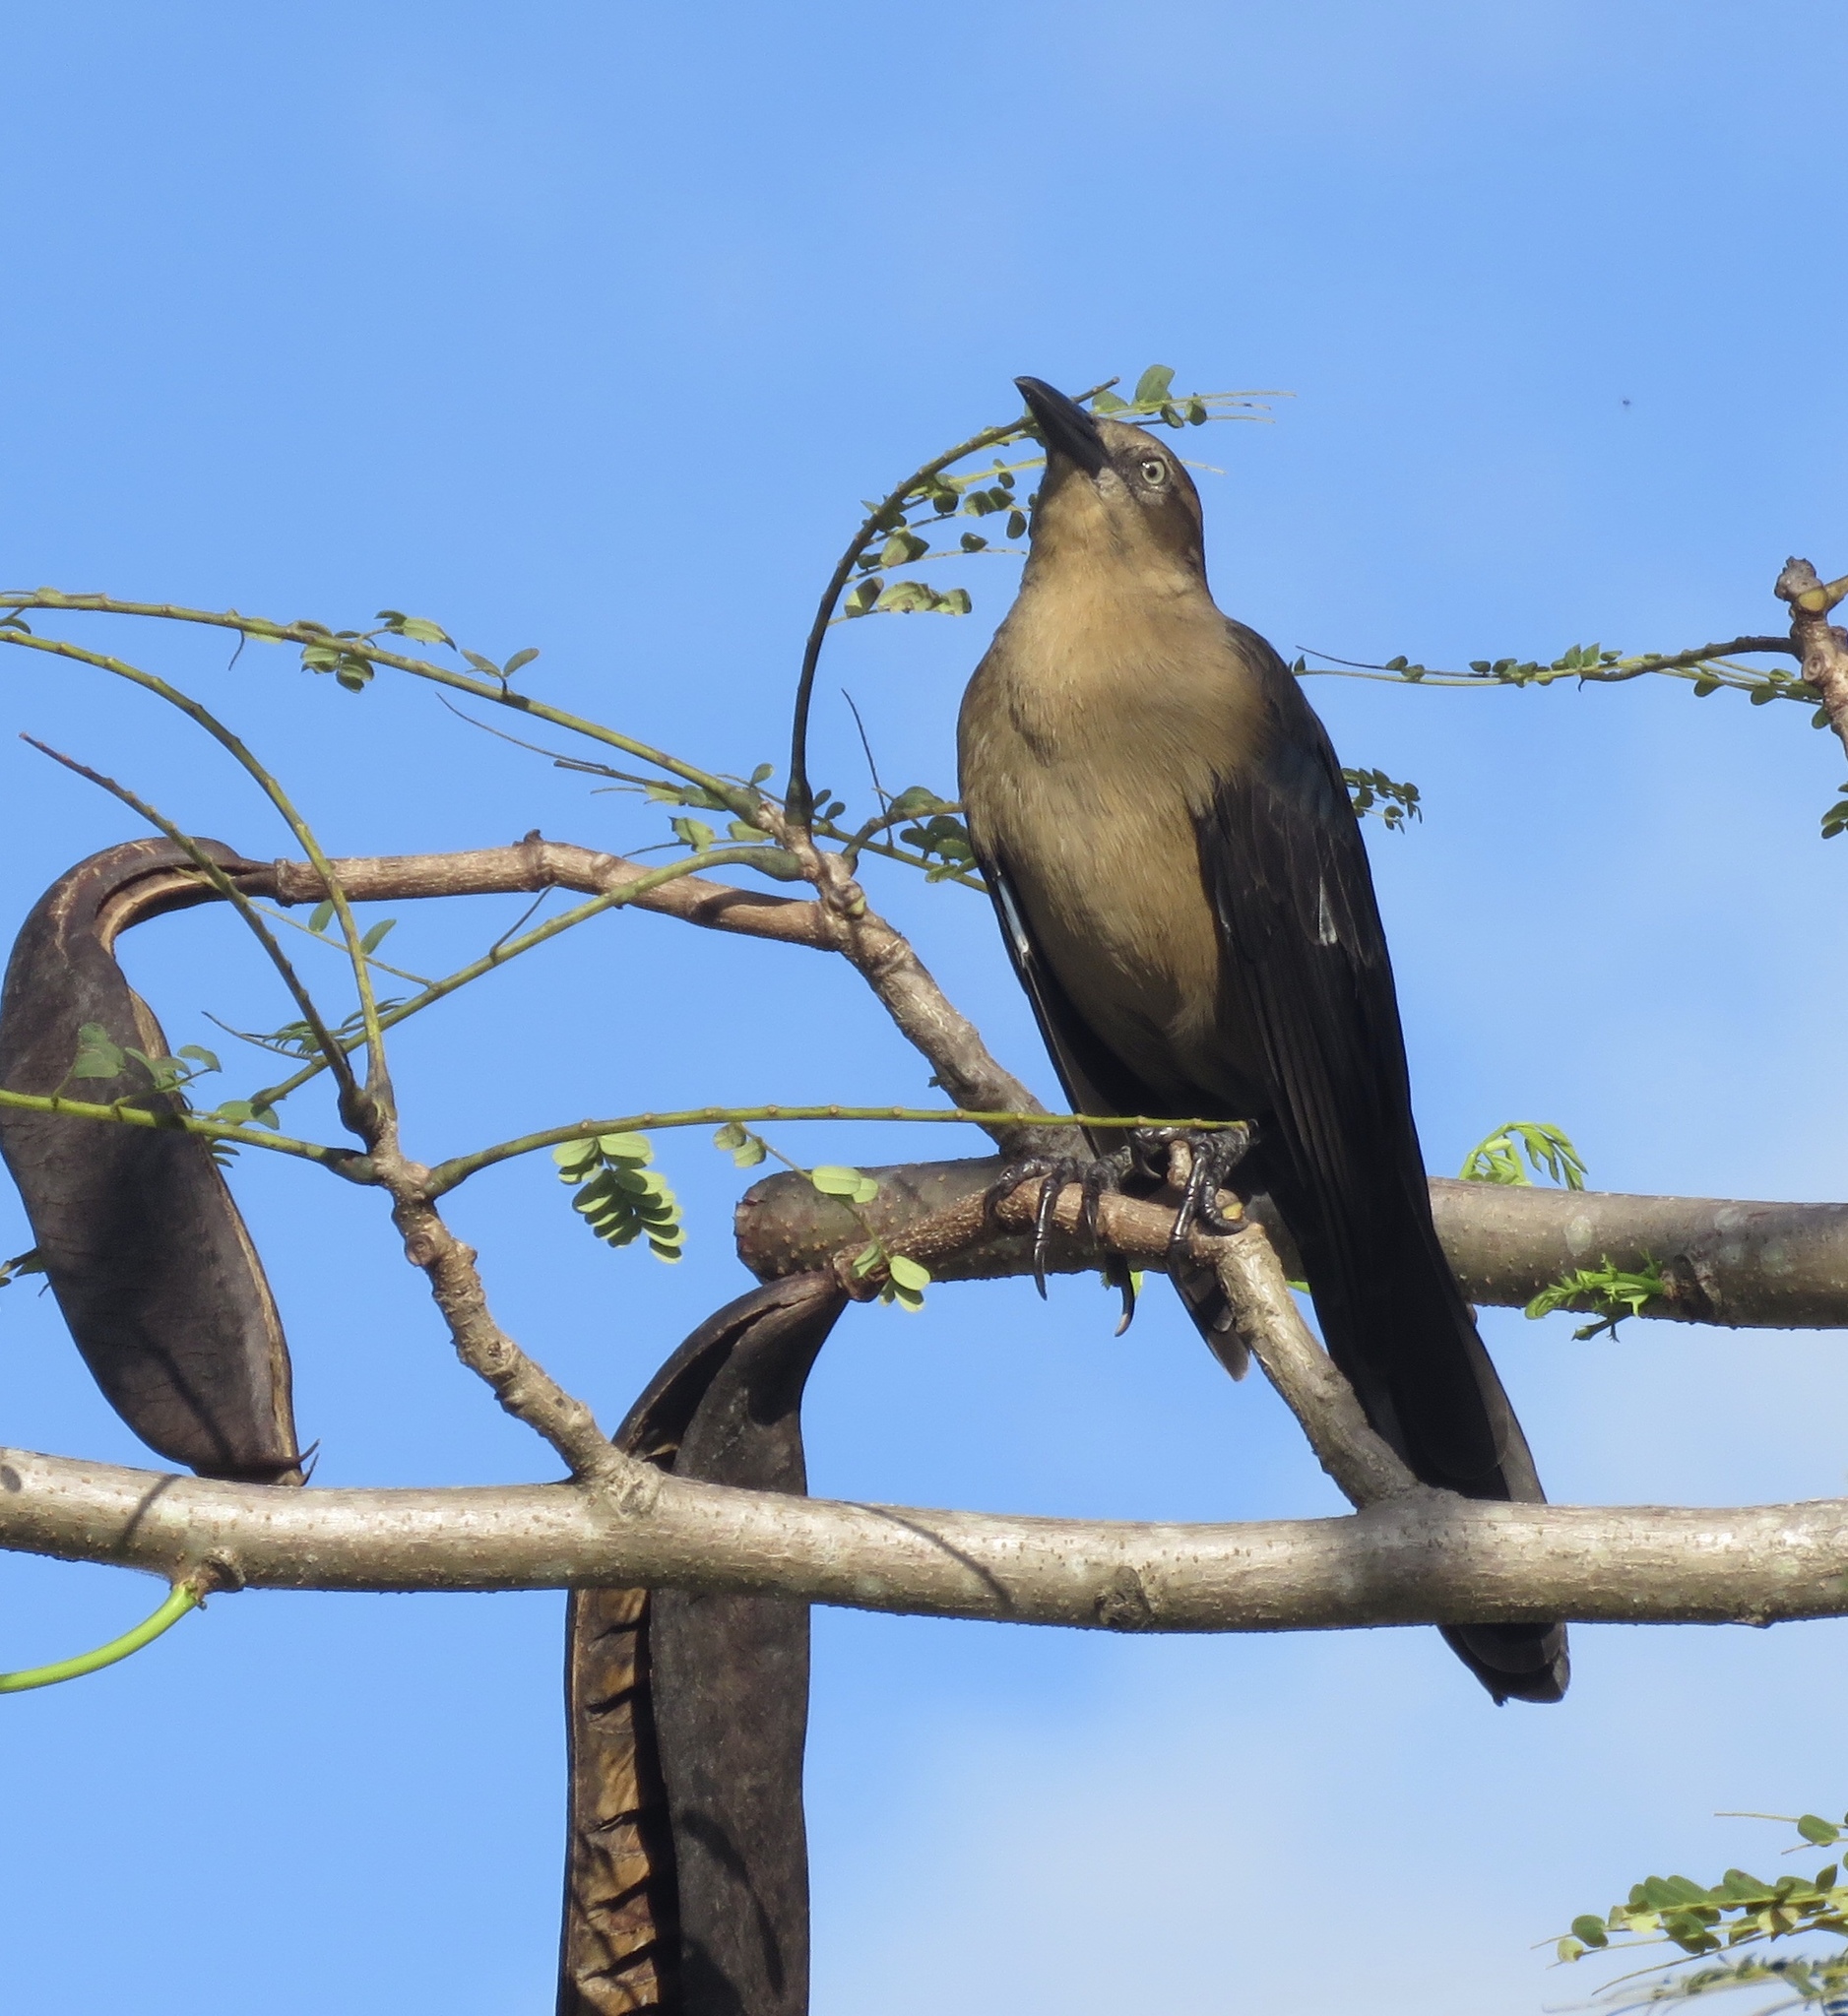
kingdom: Animalia
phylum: Chordata
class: Aves
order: Passeriformes
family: Icteridae
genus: Quiscalus
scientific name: Quiscalus mexicanus
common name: Great-tailed grackle
